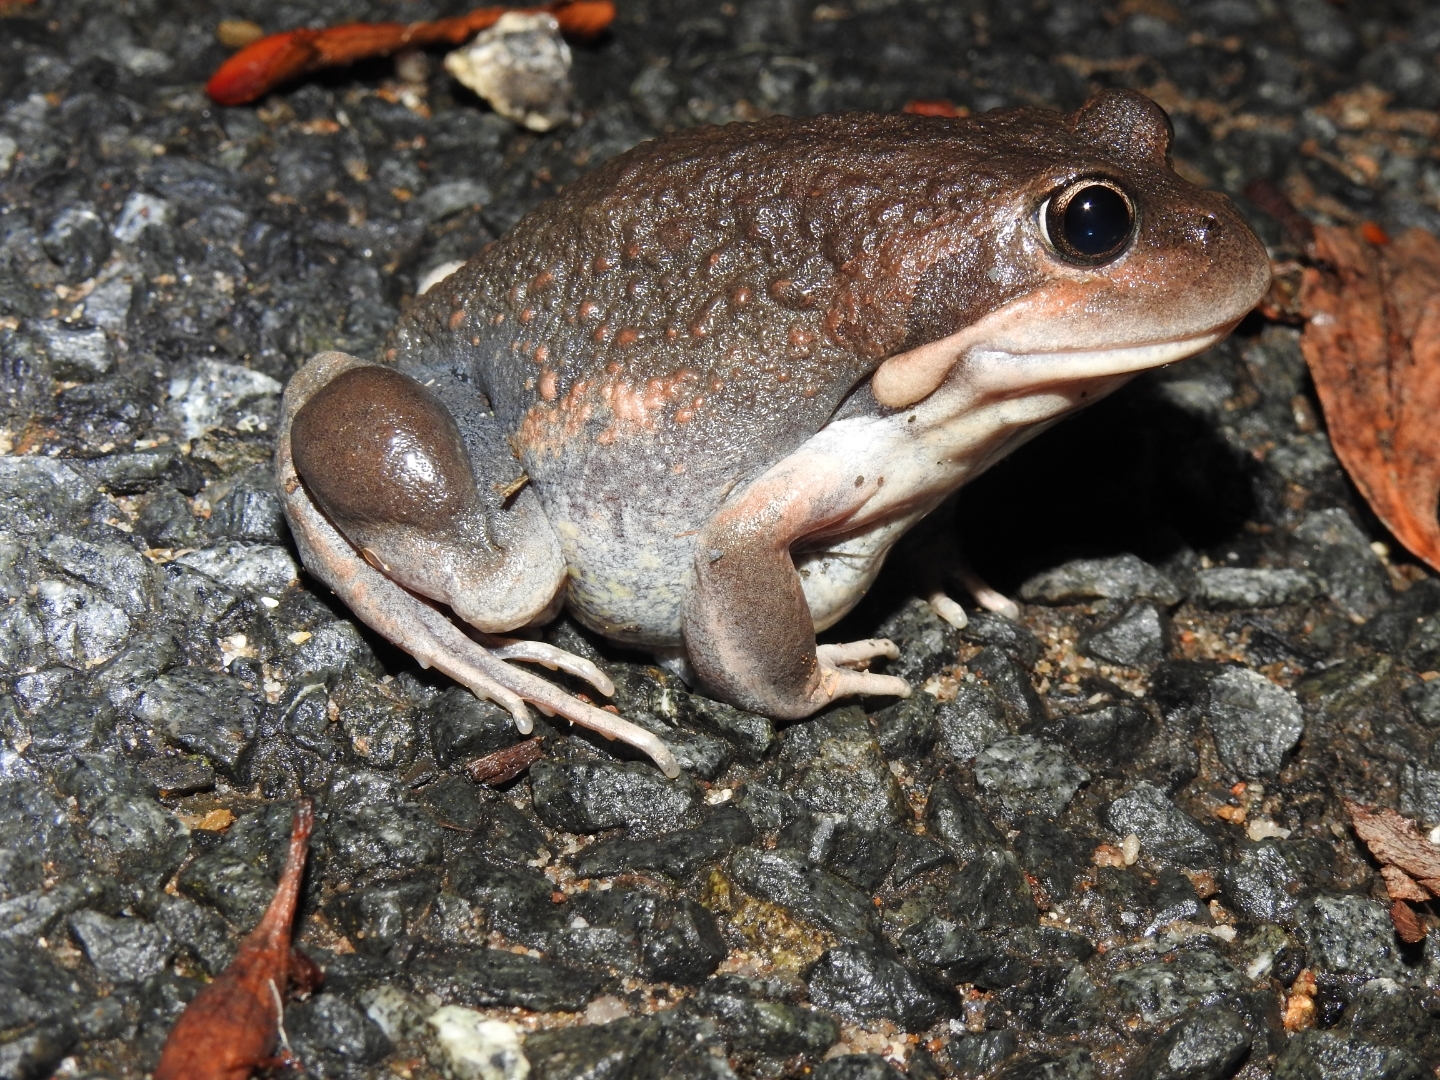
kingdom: Animalia
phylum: Chordata
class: Amphibia
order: Anura
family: Limnodynastidae
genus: Limnodynastes
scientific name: Limnodynastes dumerilii
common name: Banjo frog
